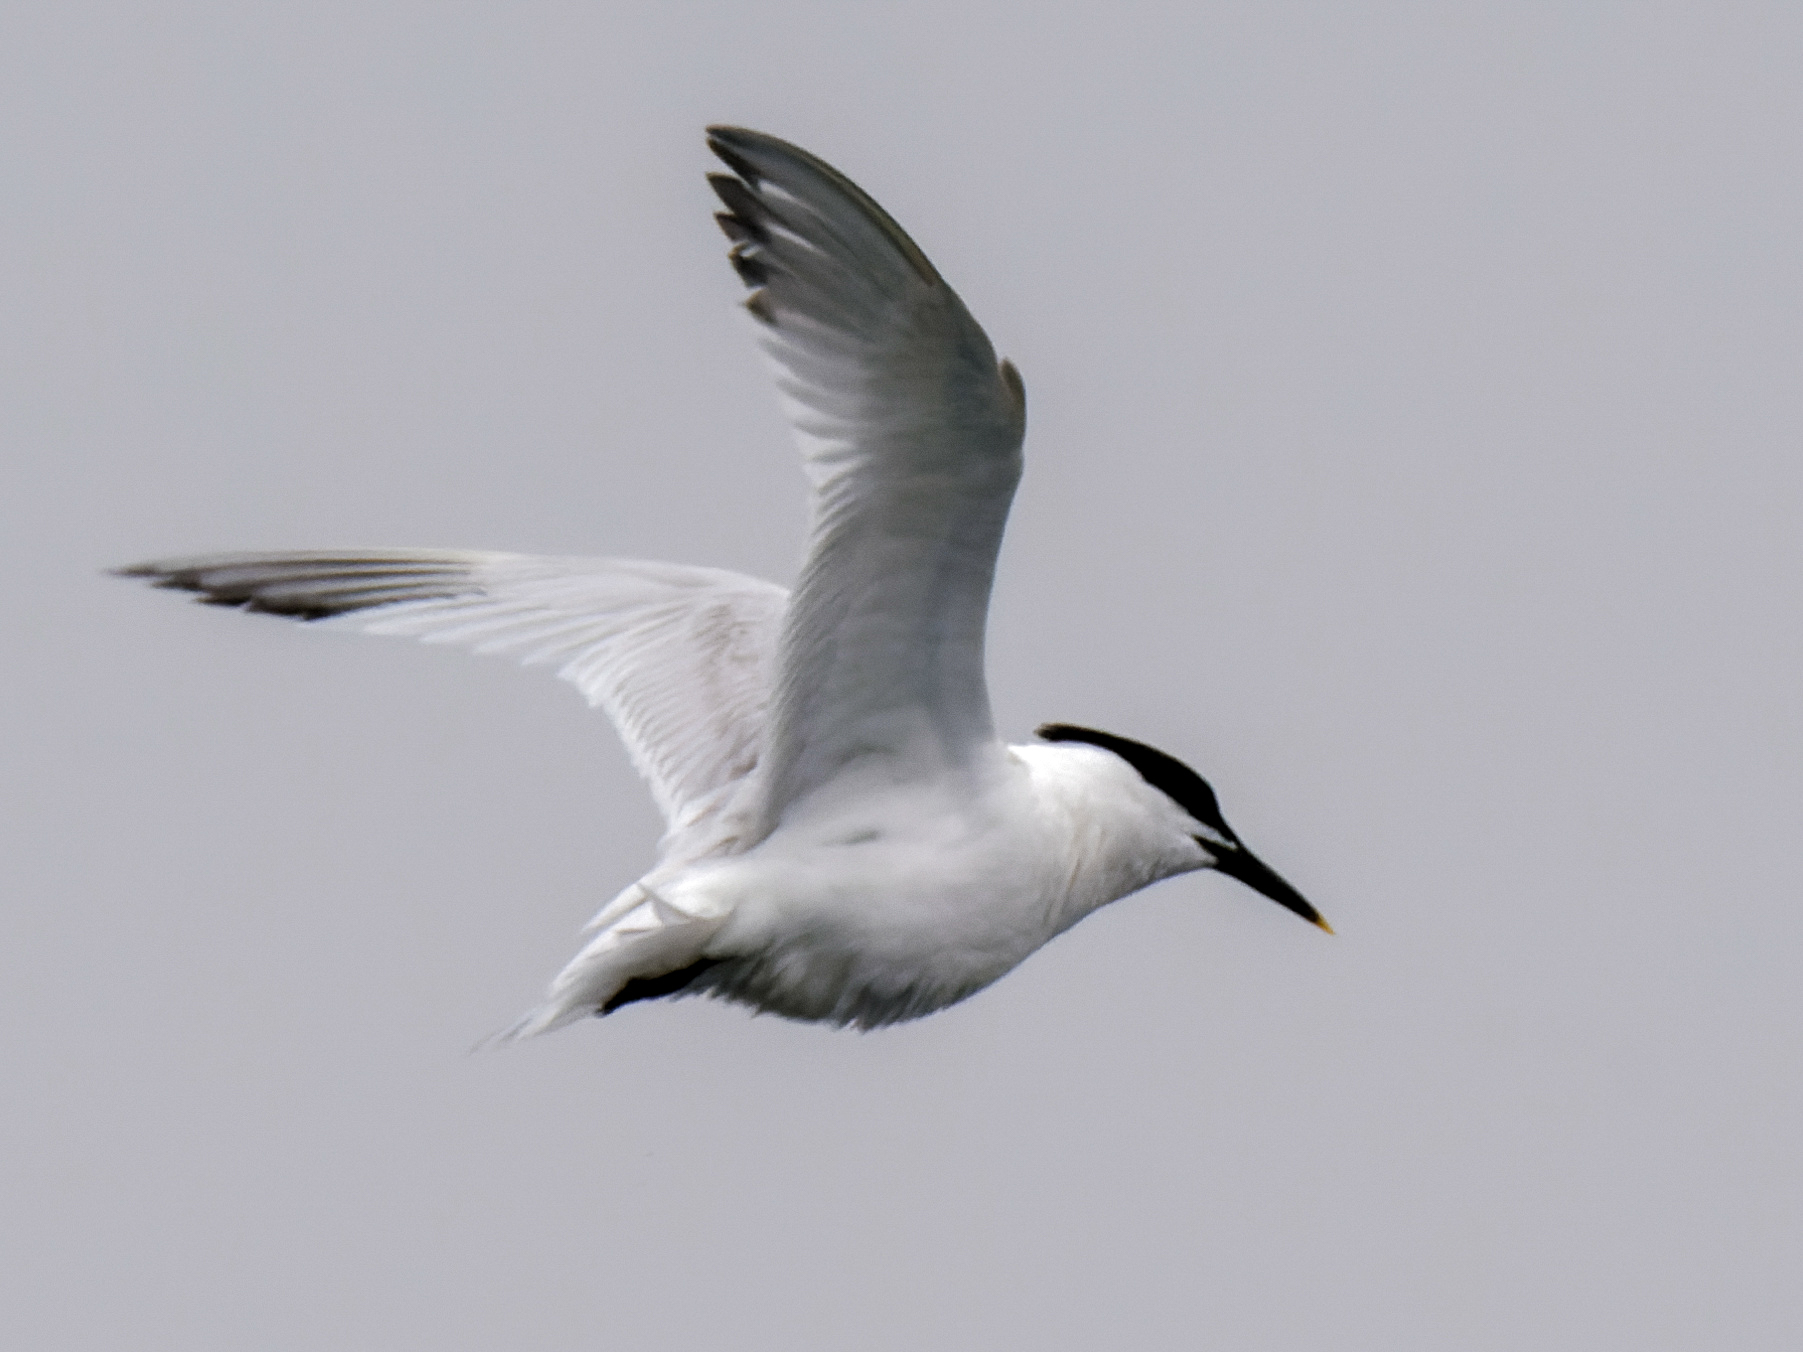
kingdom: Animalia
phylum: Chordata
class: Aves
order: Charadriiformes
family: Laridae
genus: Thalasseus
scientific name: Thalasseus sandvicensis
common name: Sandwich tern
